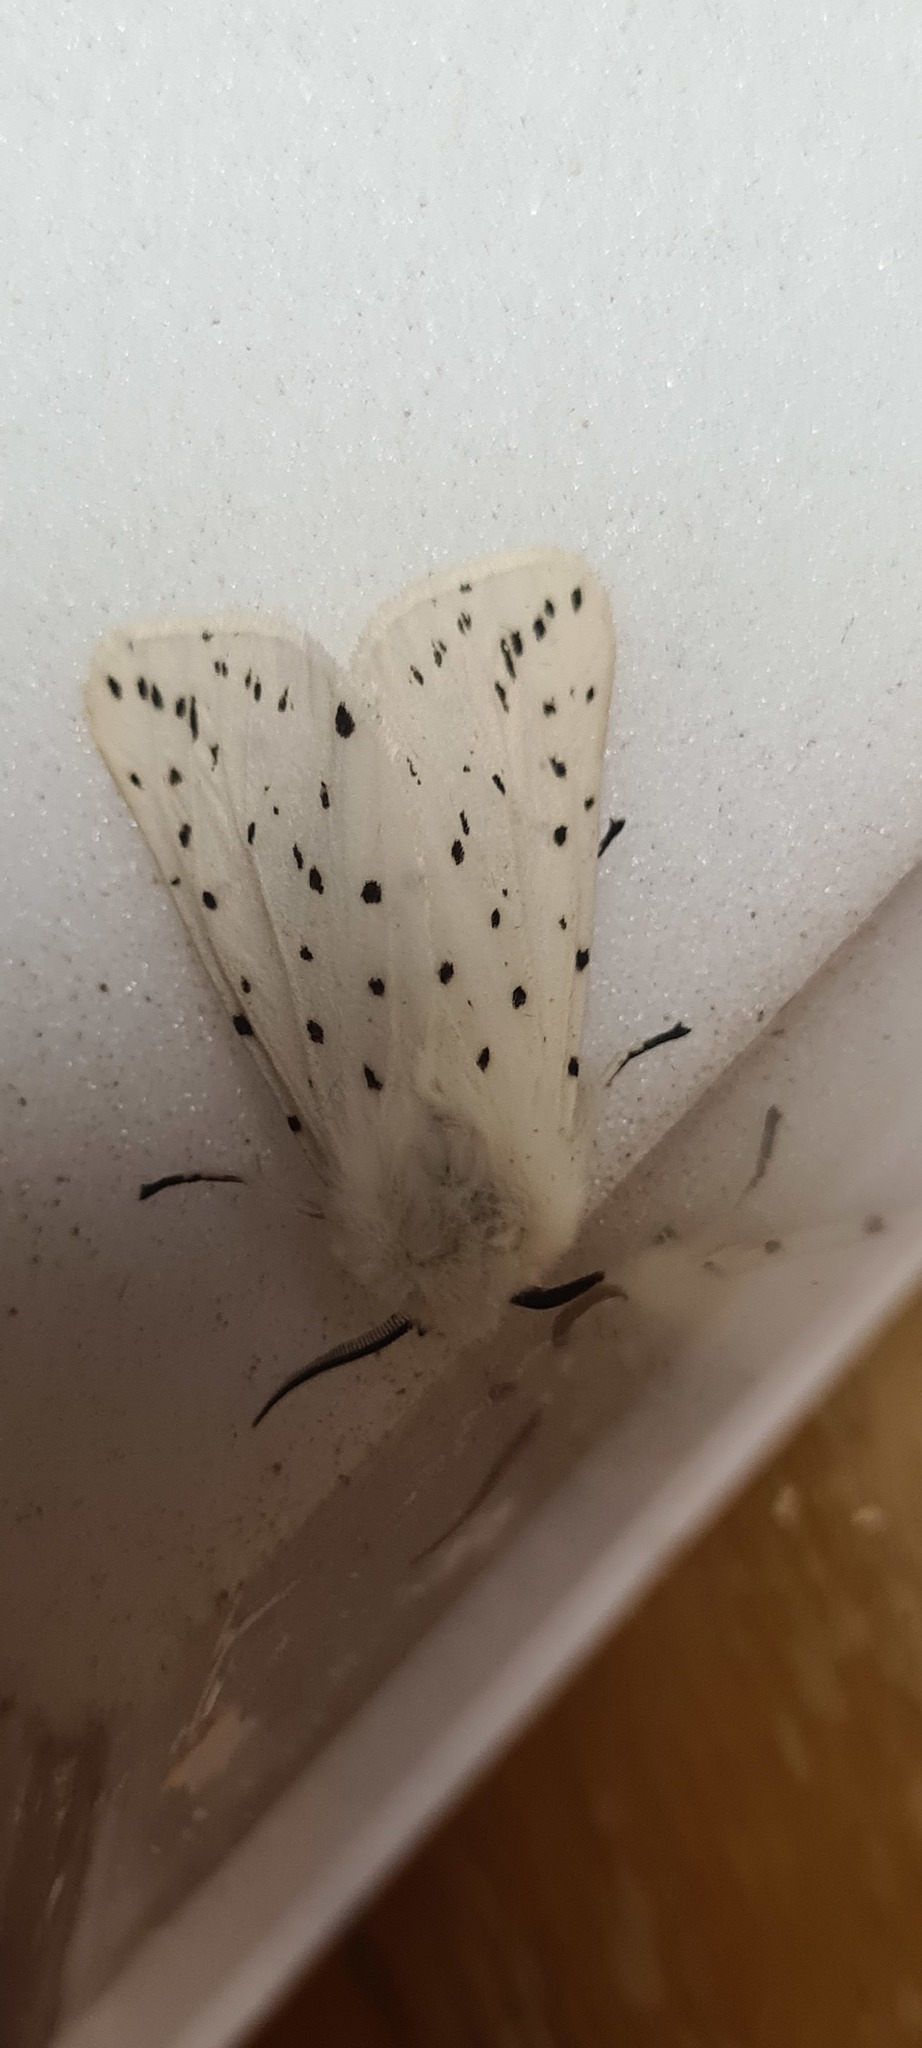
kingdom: Animalia
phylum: Arthropoda
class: Insecta
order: Lepidoptera
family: Erebidae
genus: Spilosoma
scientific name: Spilosoma lubricipeda
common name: White ermine
